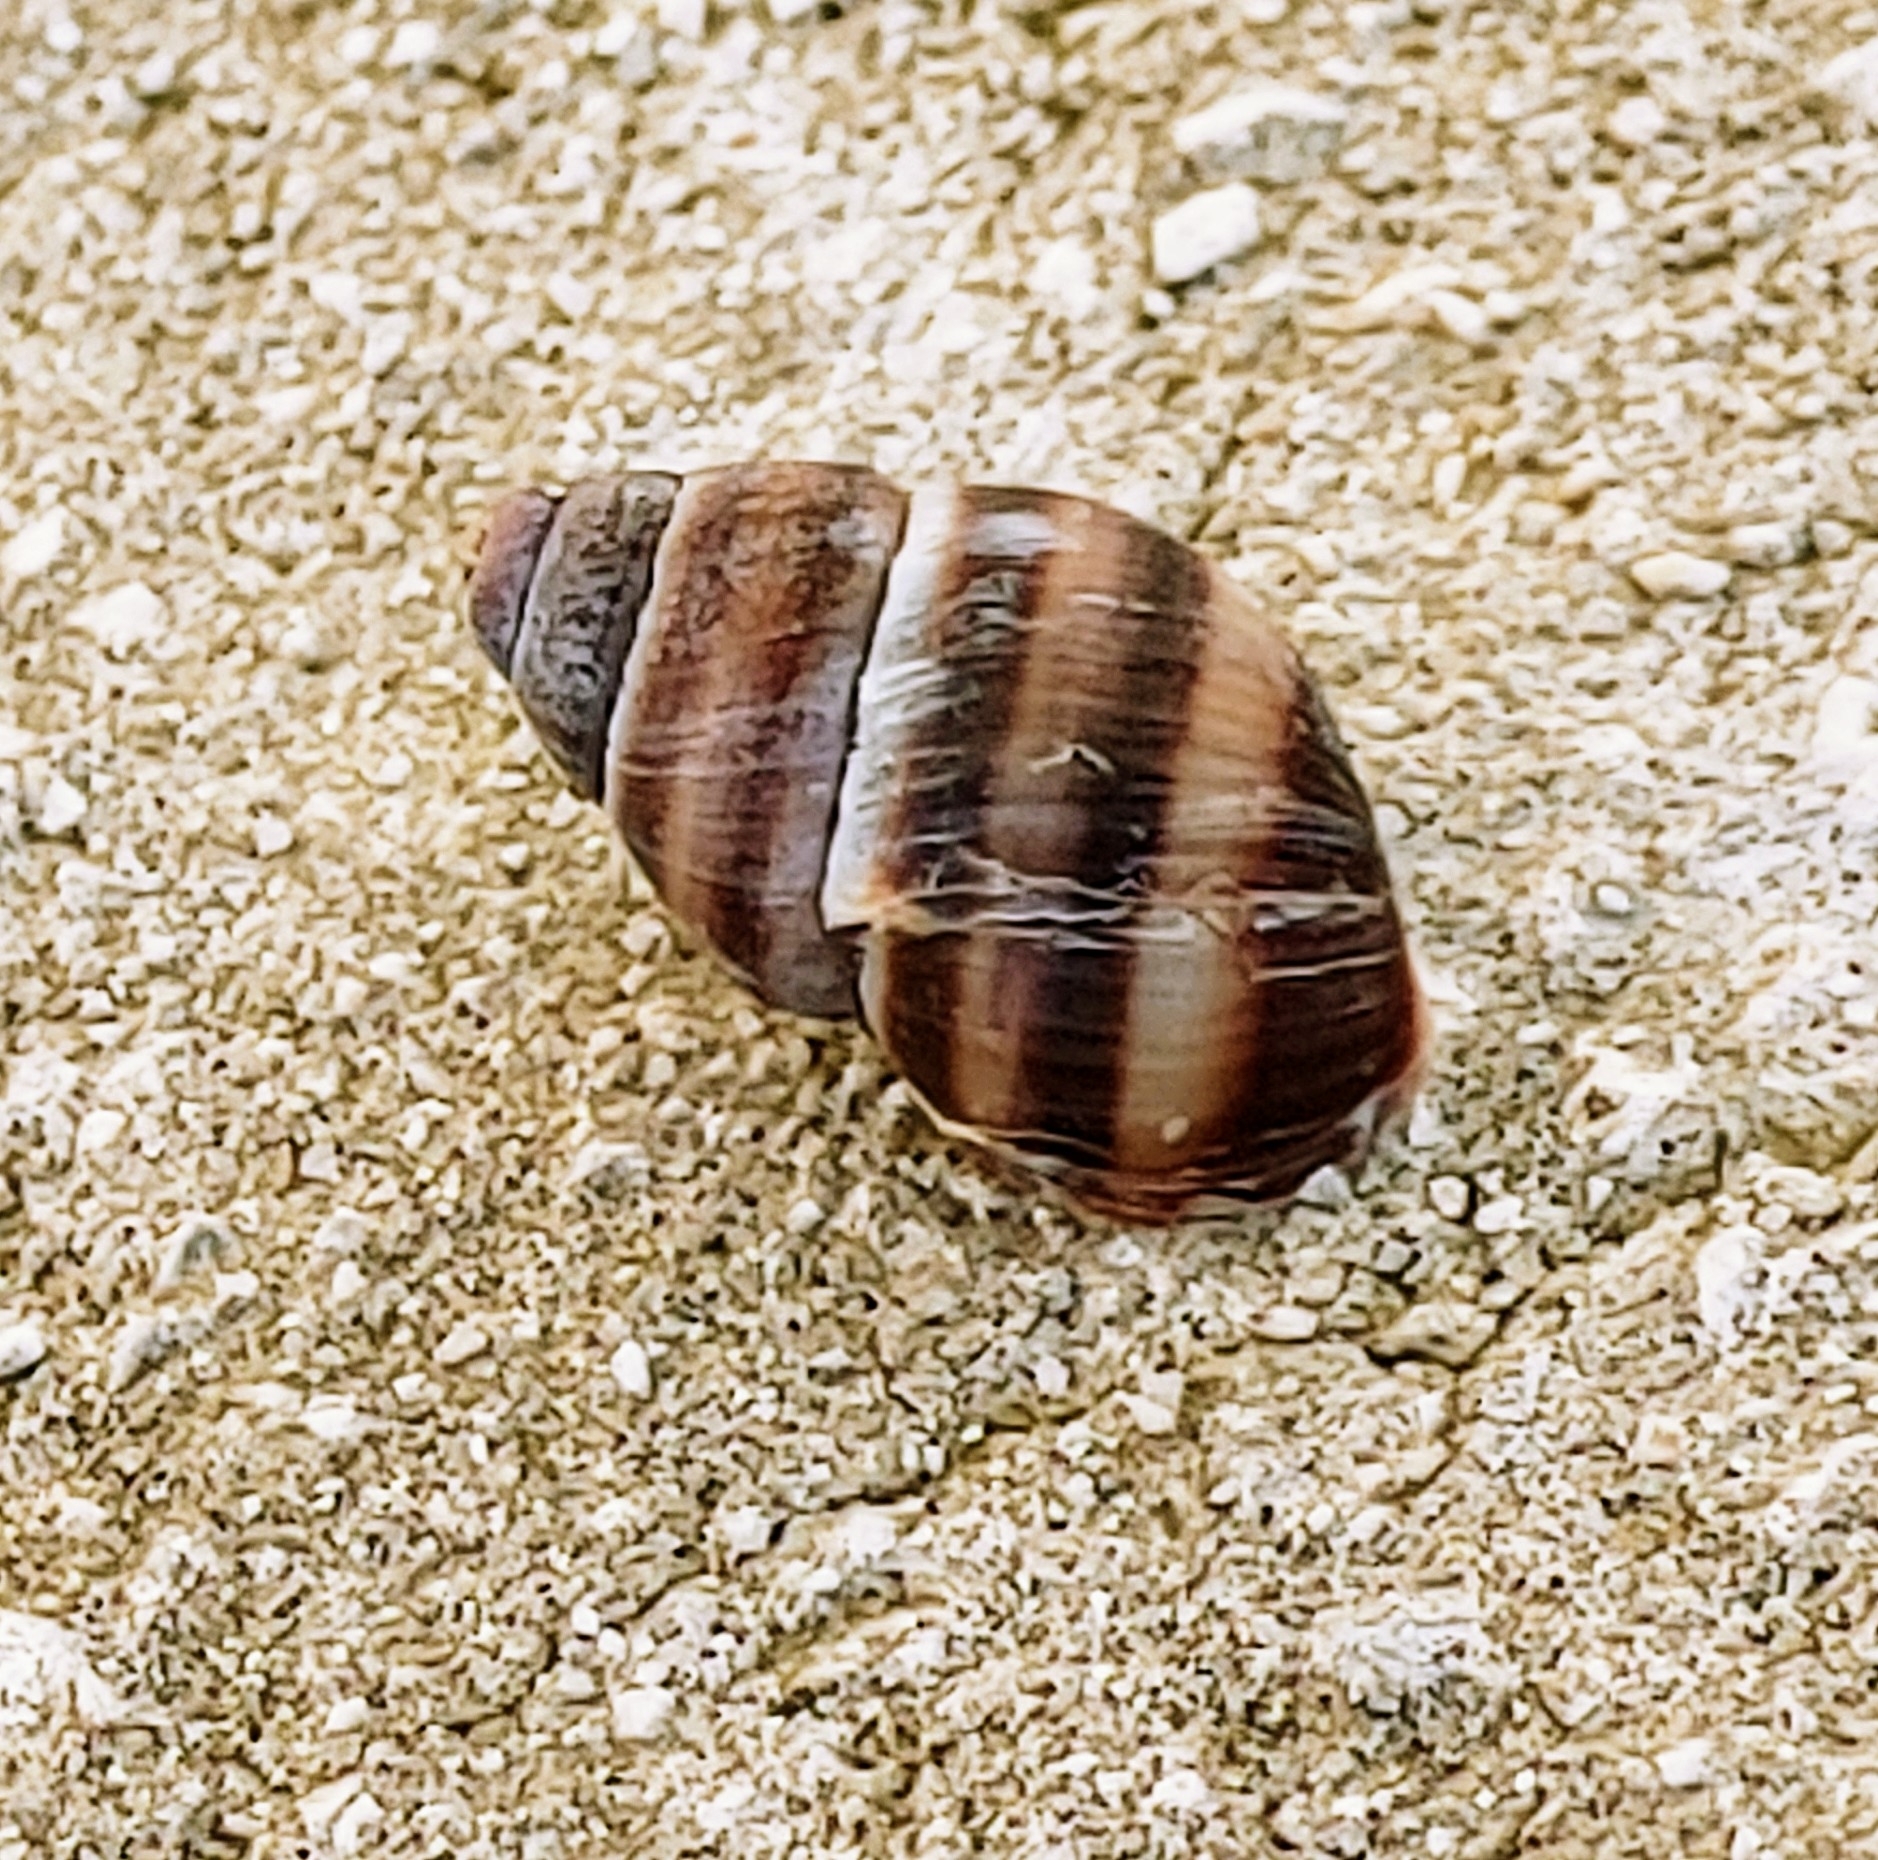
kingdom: Animalia
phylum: Mollusca
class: Gastropoda
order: Stylommatophora
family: Bulimulidae
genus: Bulimulus
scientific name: Bulimulus guadalupensis
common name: West indian bulimulus
